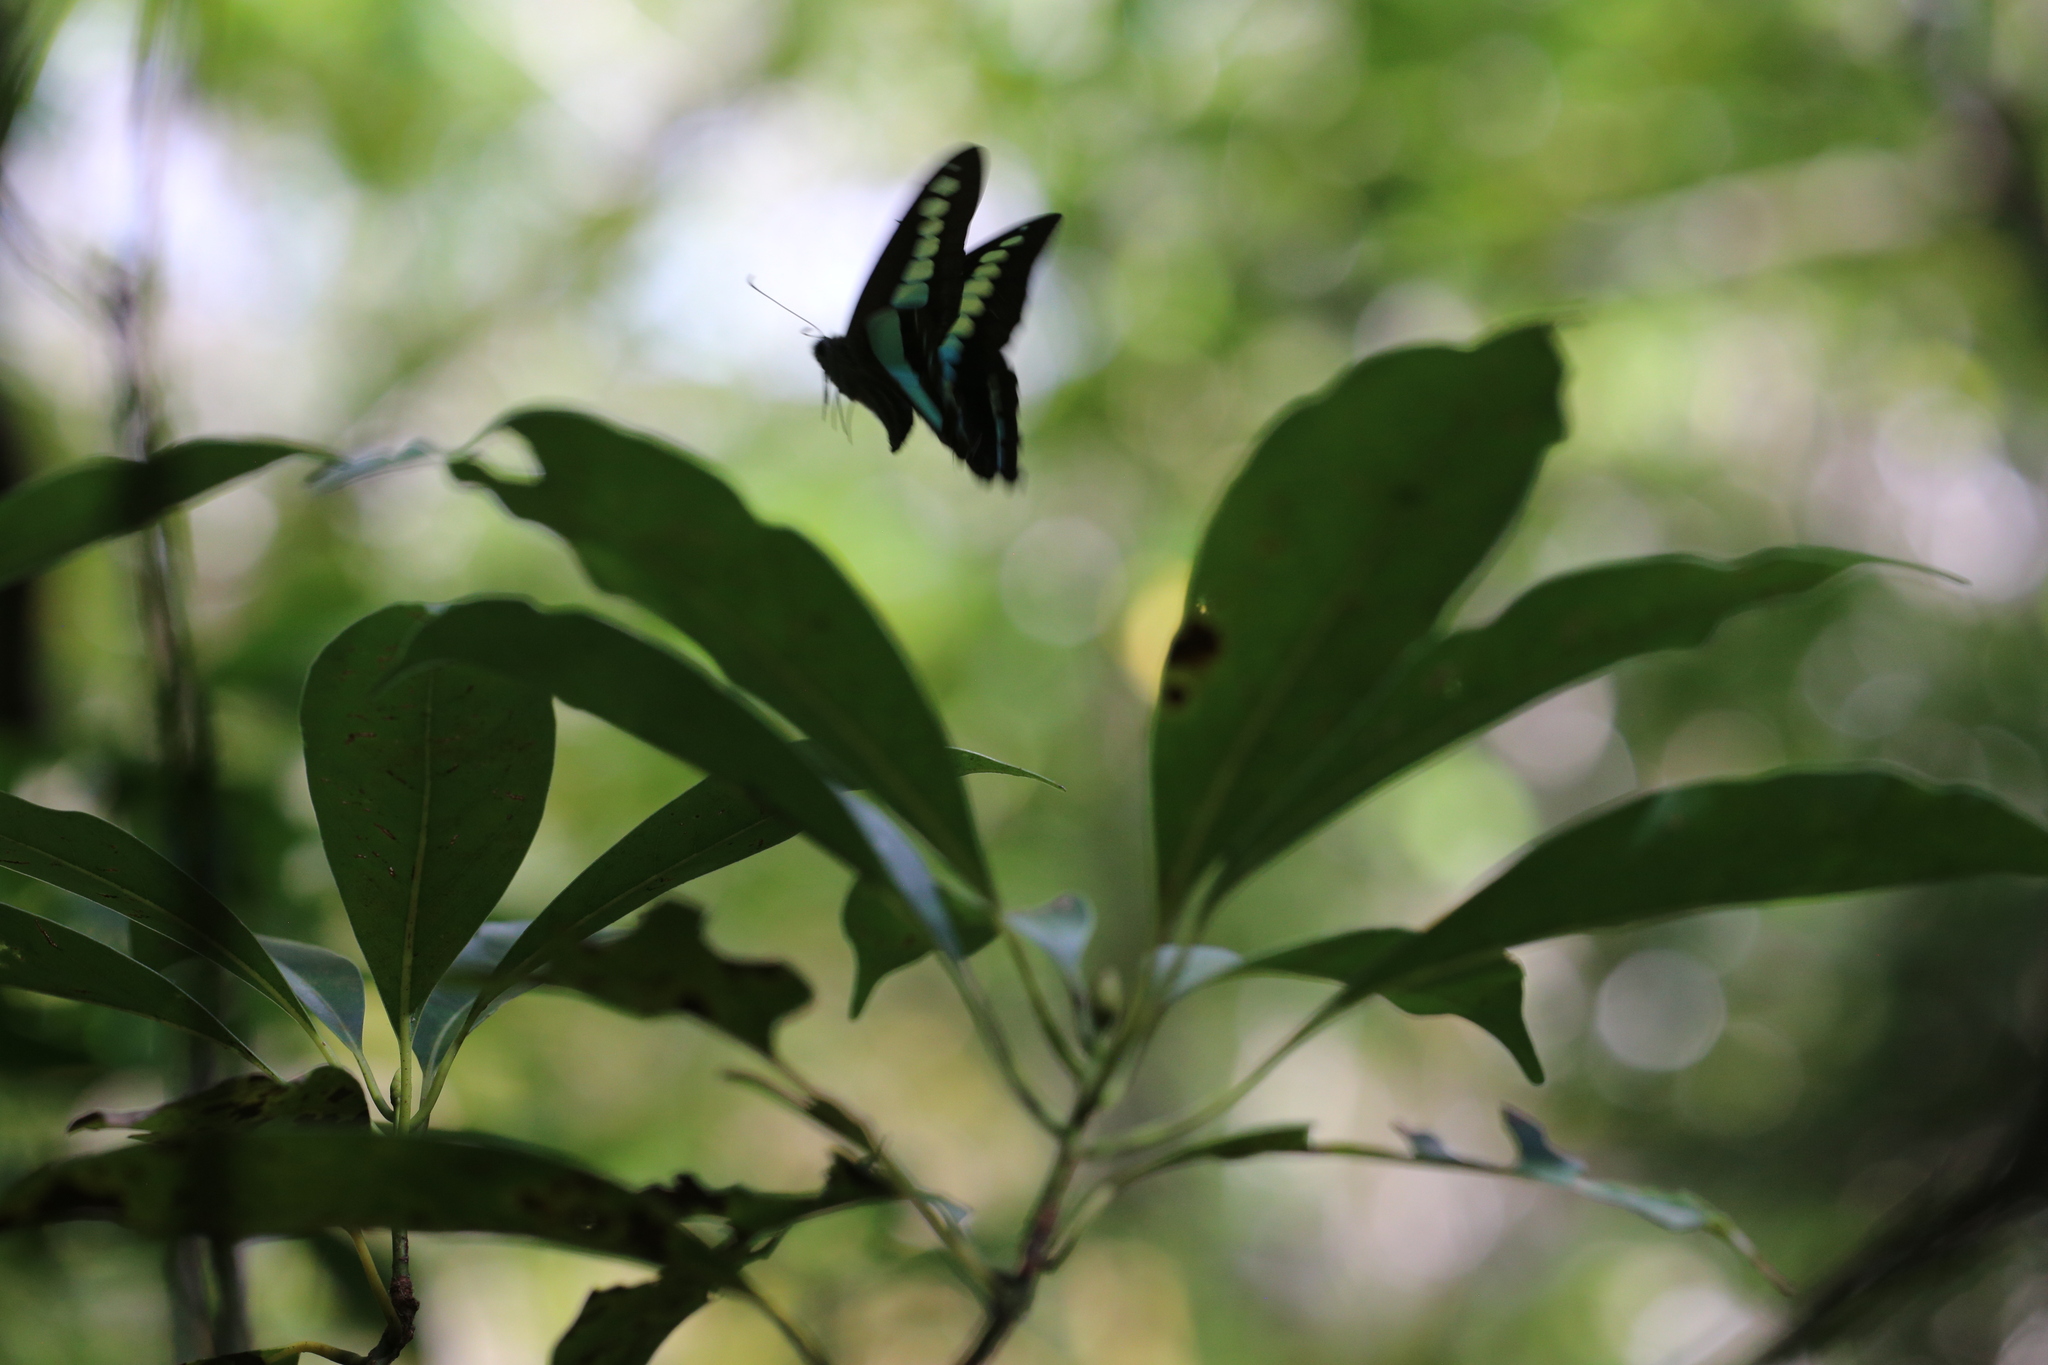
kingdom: Fungi
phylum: Ascomycota
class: Sordariomycetes
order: Microascales
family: Microascaceae
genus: Graphium
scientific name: Graphium sarpedon
